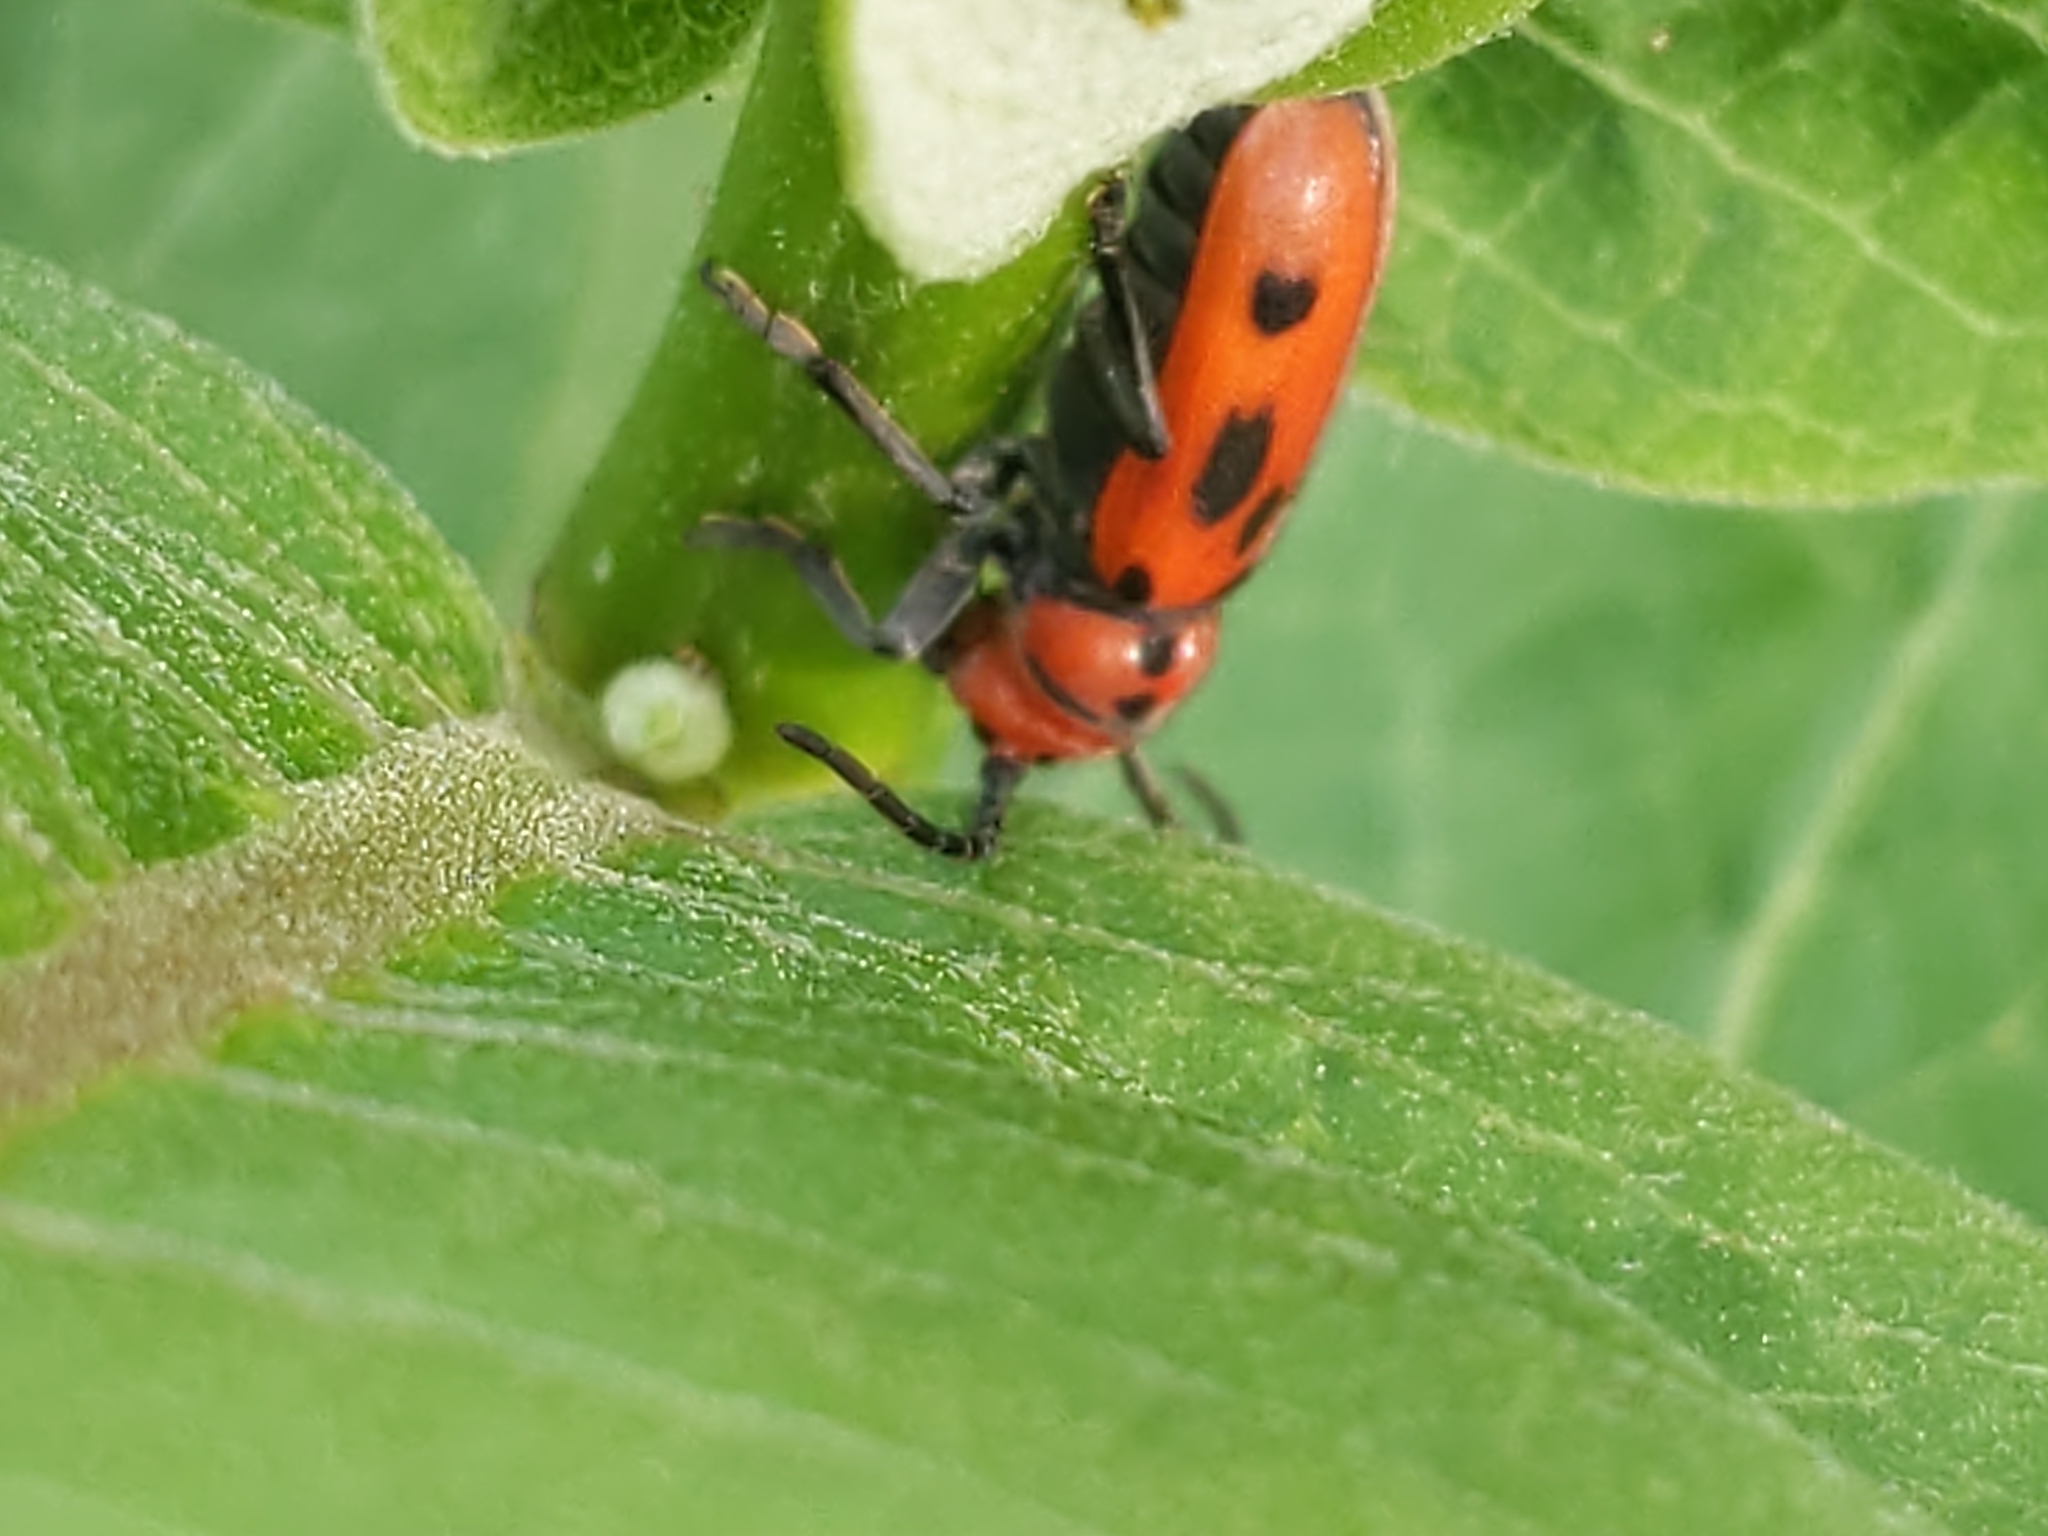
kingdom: Animalia
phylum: Arthropoda
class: Insecta
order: Coleoptera
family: Cerambycidae
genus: Tetraopes
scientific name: Tetraopes tetrophthalmus
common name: Red milkweed beetle
